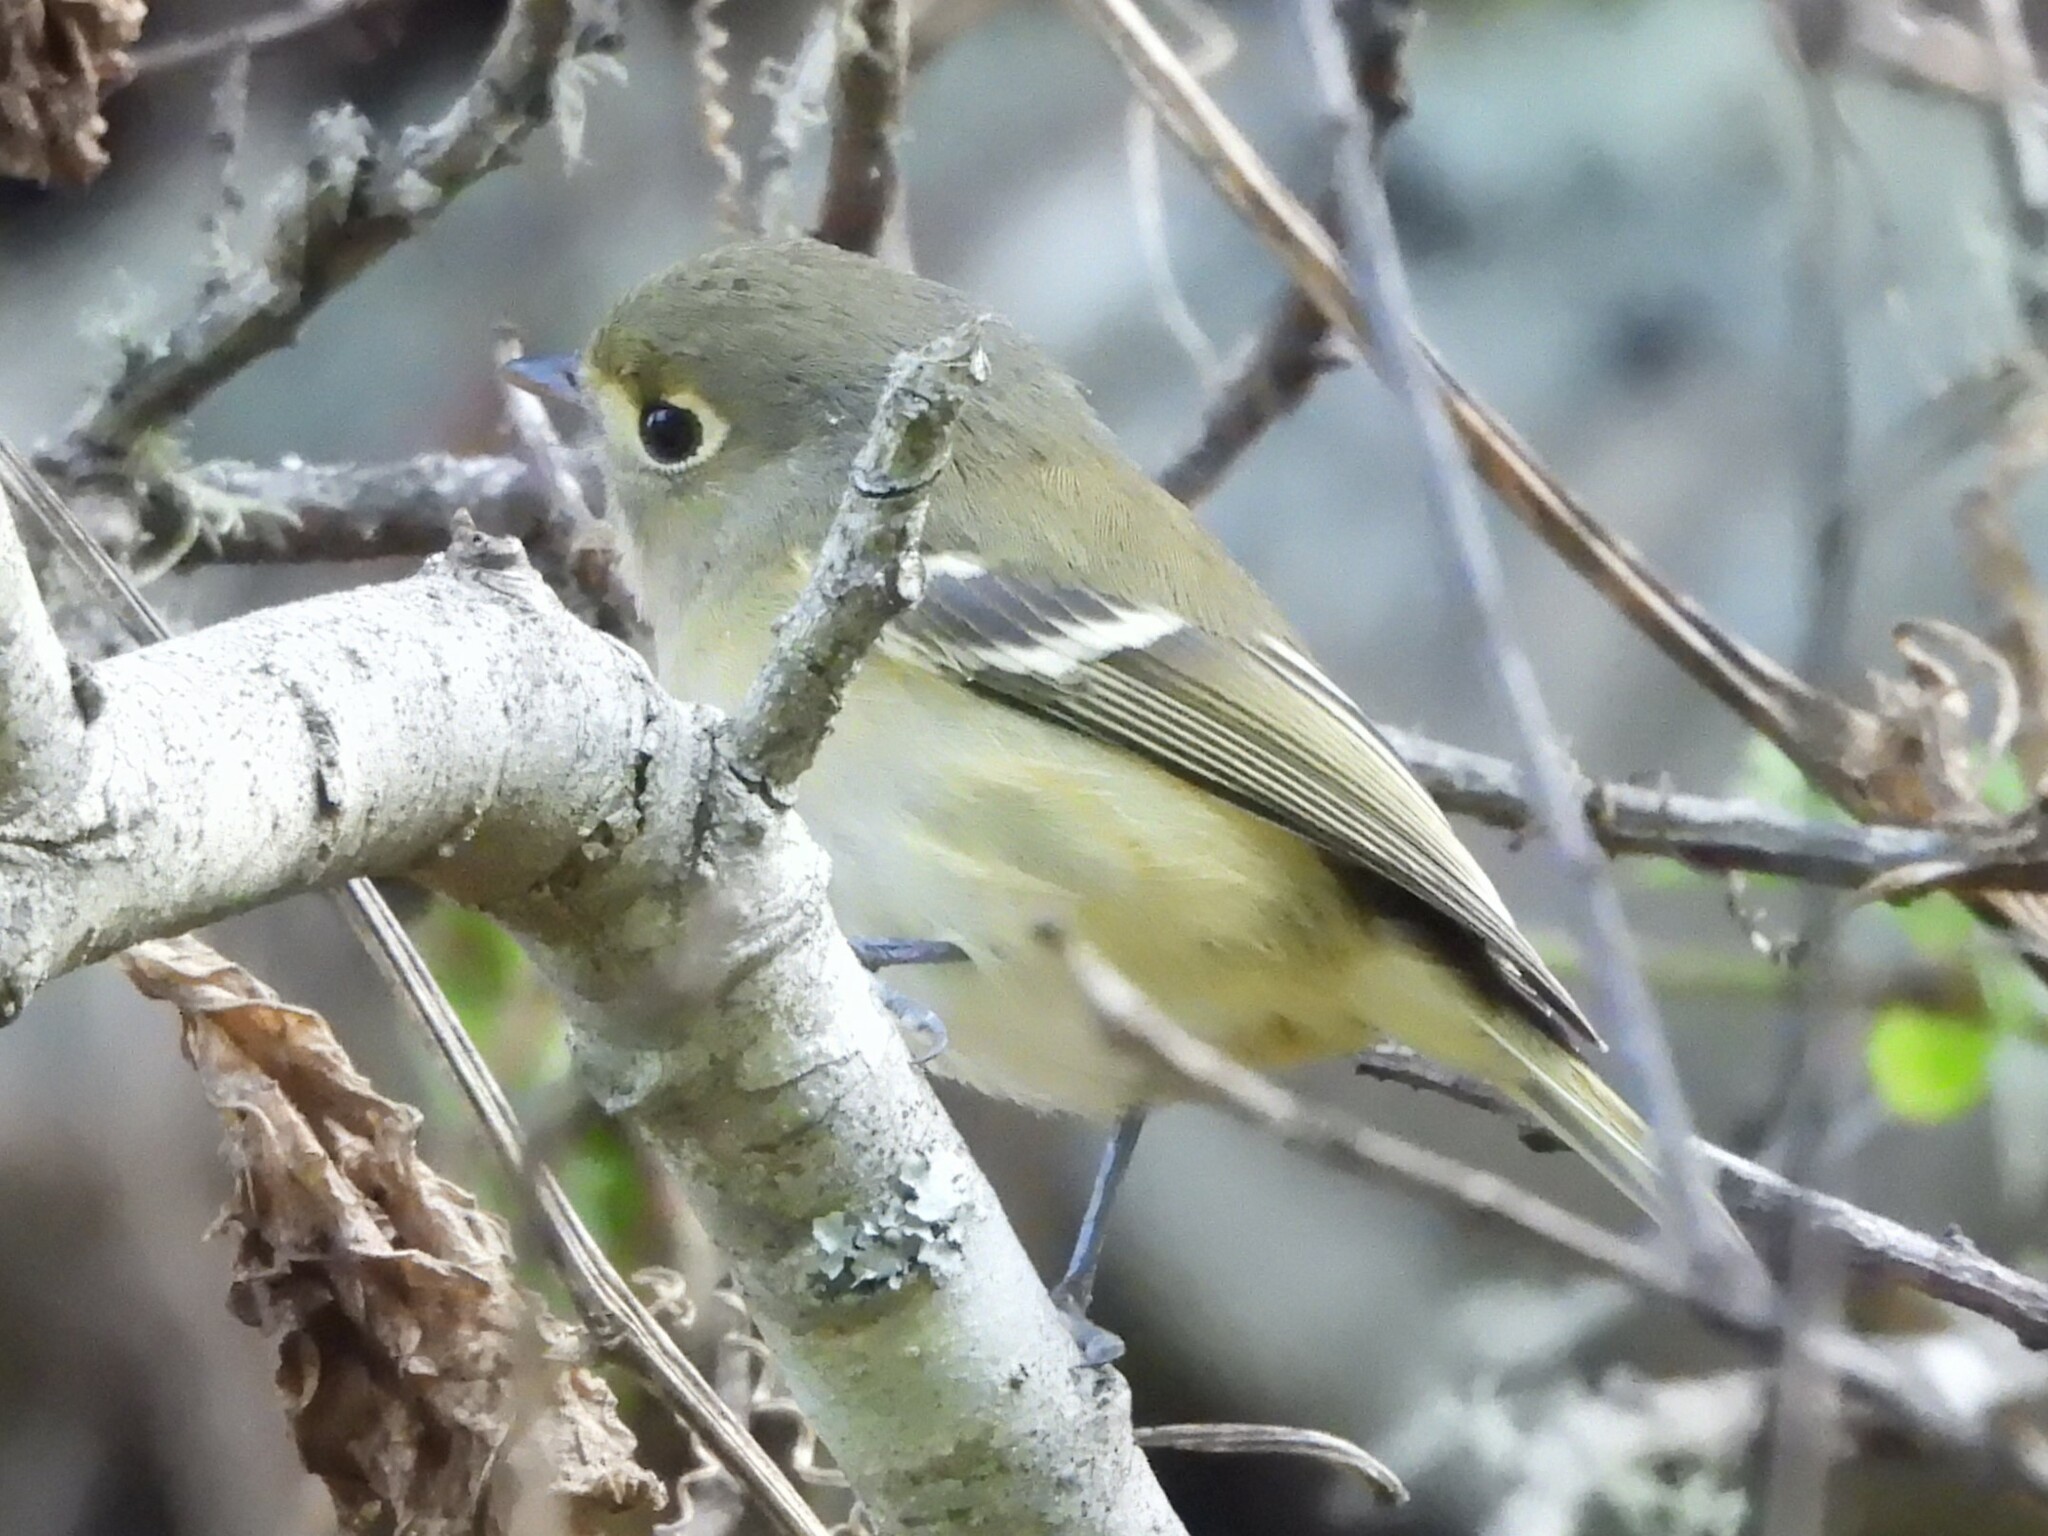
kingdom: Animalia
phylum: Chordata
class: Aves
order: Passeriformes
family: Vireonidae
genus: Vireo
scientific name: Vireo huttoni
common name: Hutton's vireo
